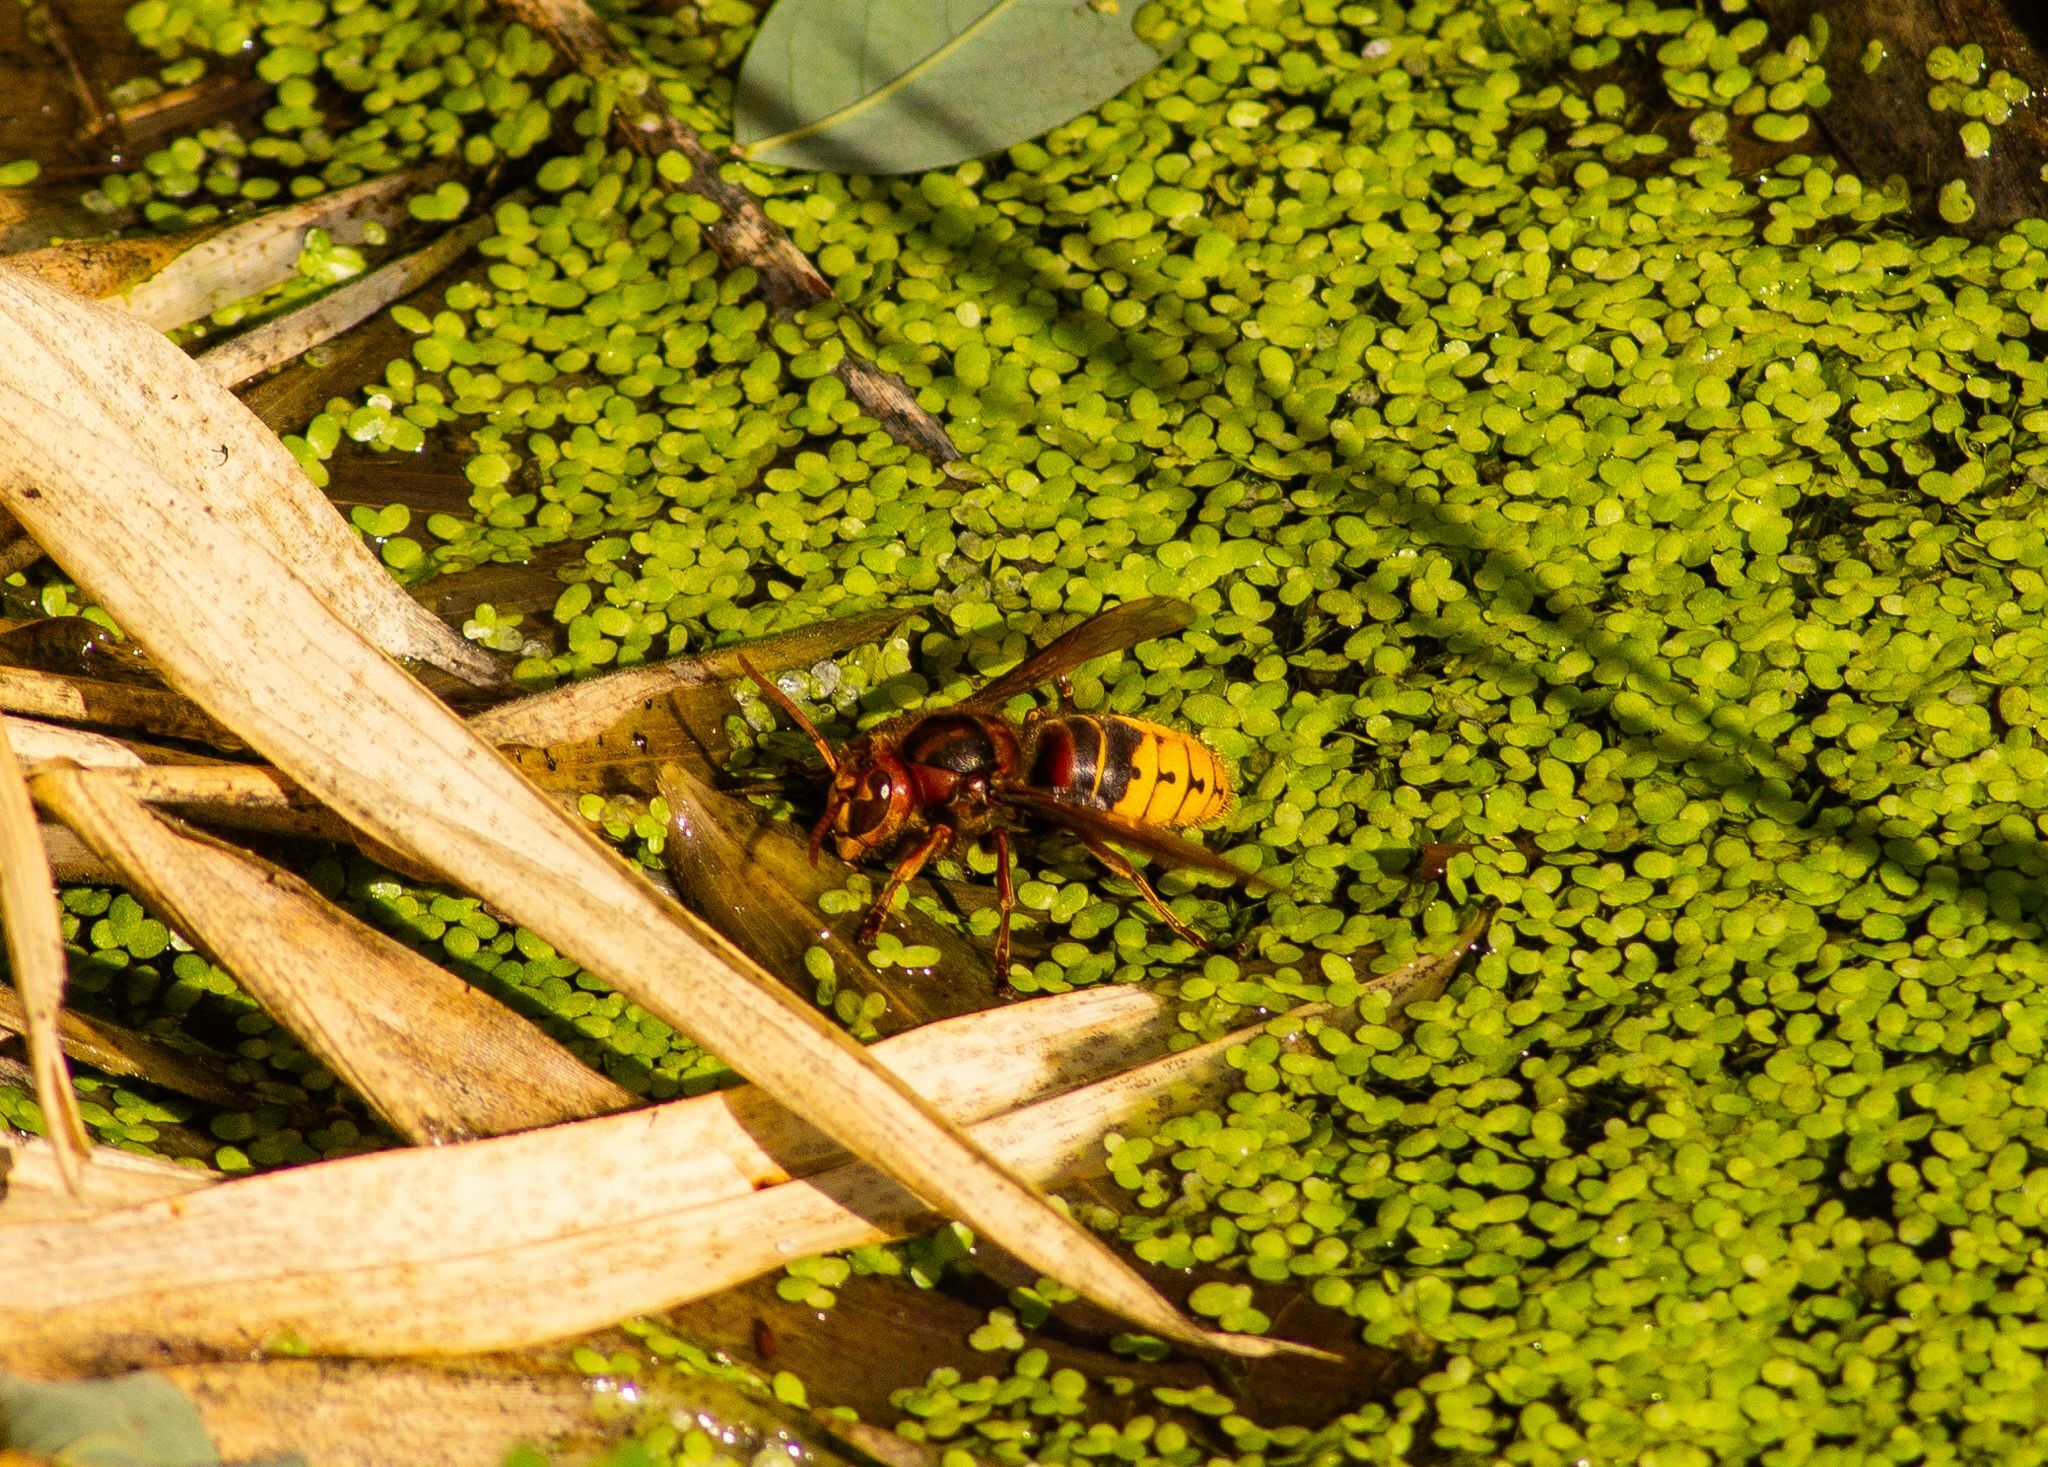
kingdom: Animalia
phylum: Arthropoda
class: Insecta
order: Hymenoptera
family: Vespidae
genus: Vespa
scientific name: Vespa crabro
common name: Hornet
